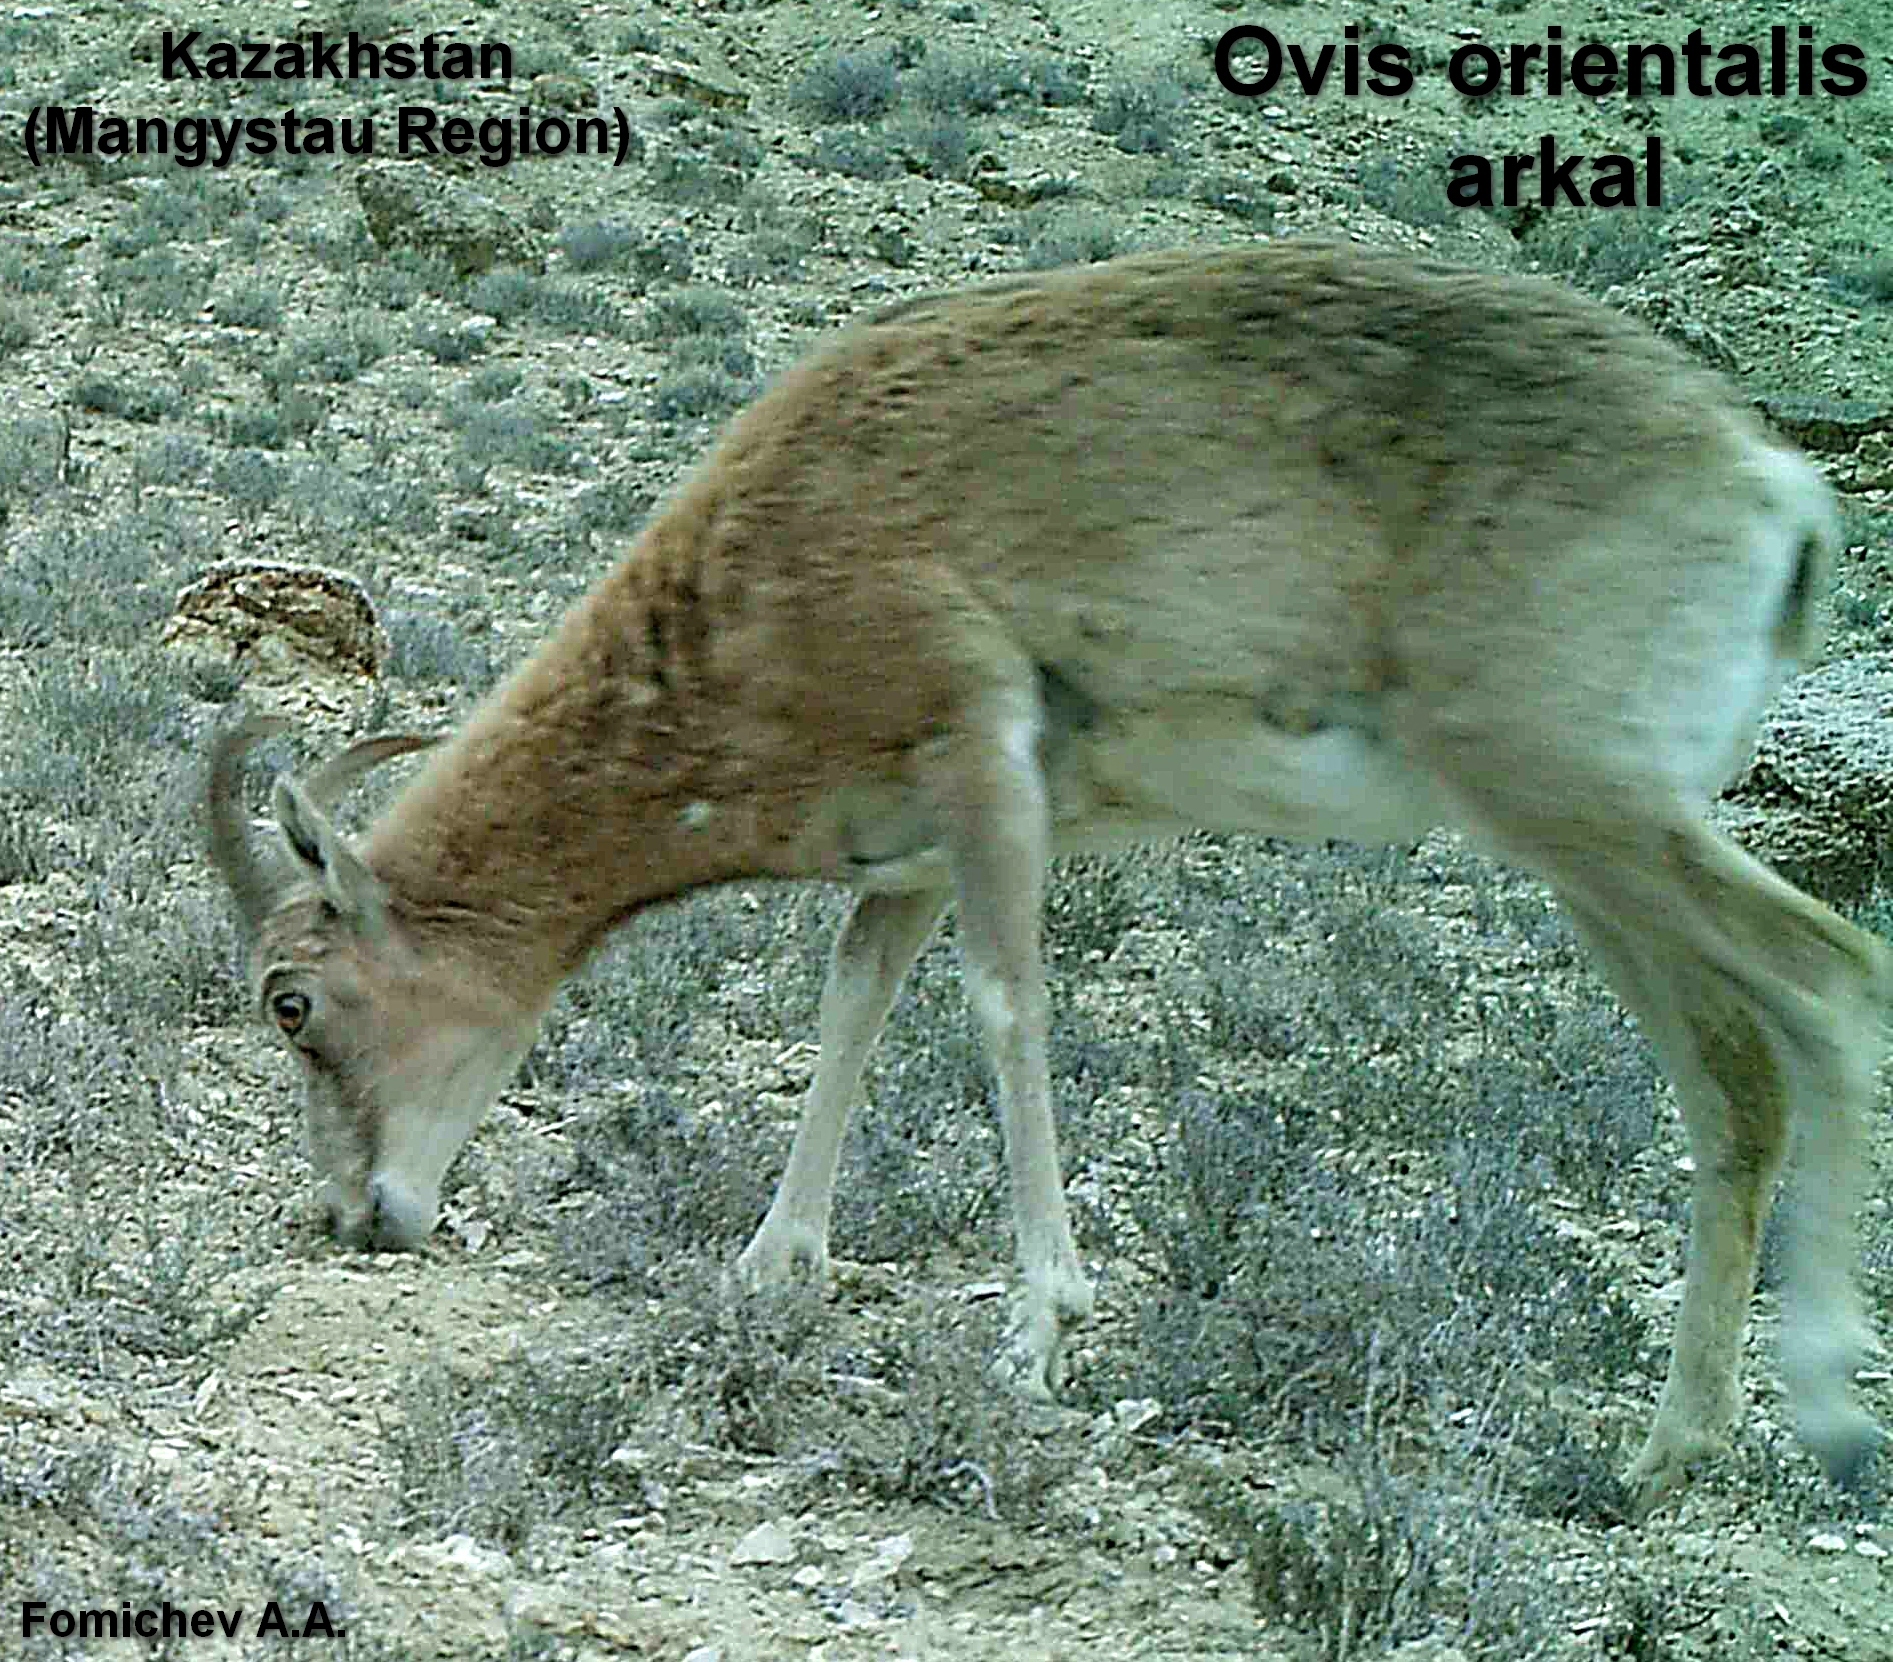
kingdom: Animalia
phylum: Chordata
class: Mammalia
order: Artiodactyla
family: Bovidae
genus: Ovis
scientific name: Ovis aries
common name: Domestic sheep
